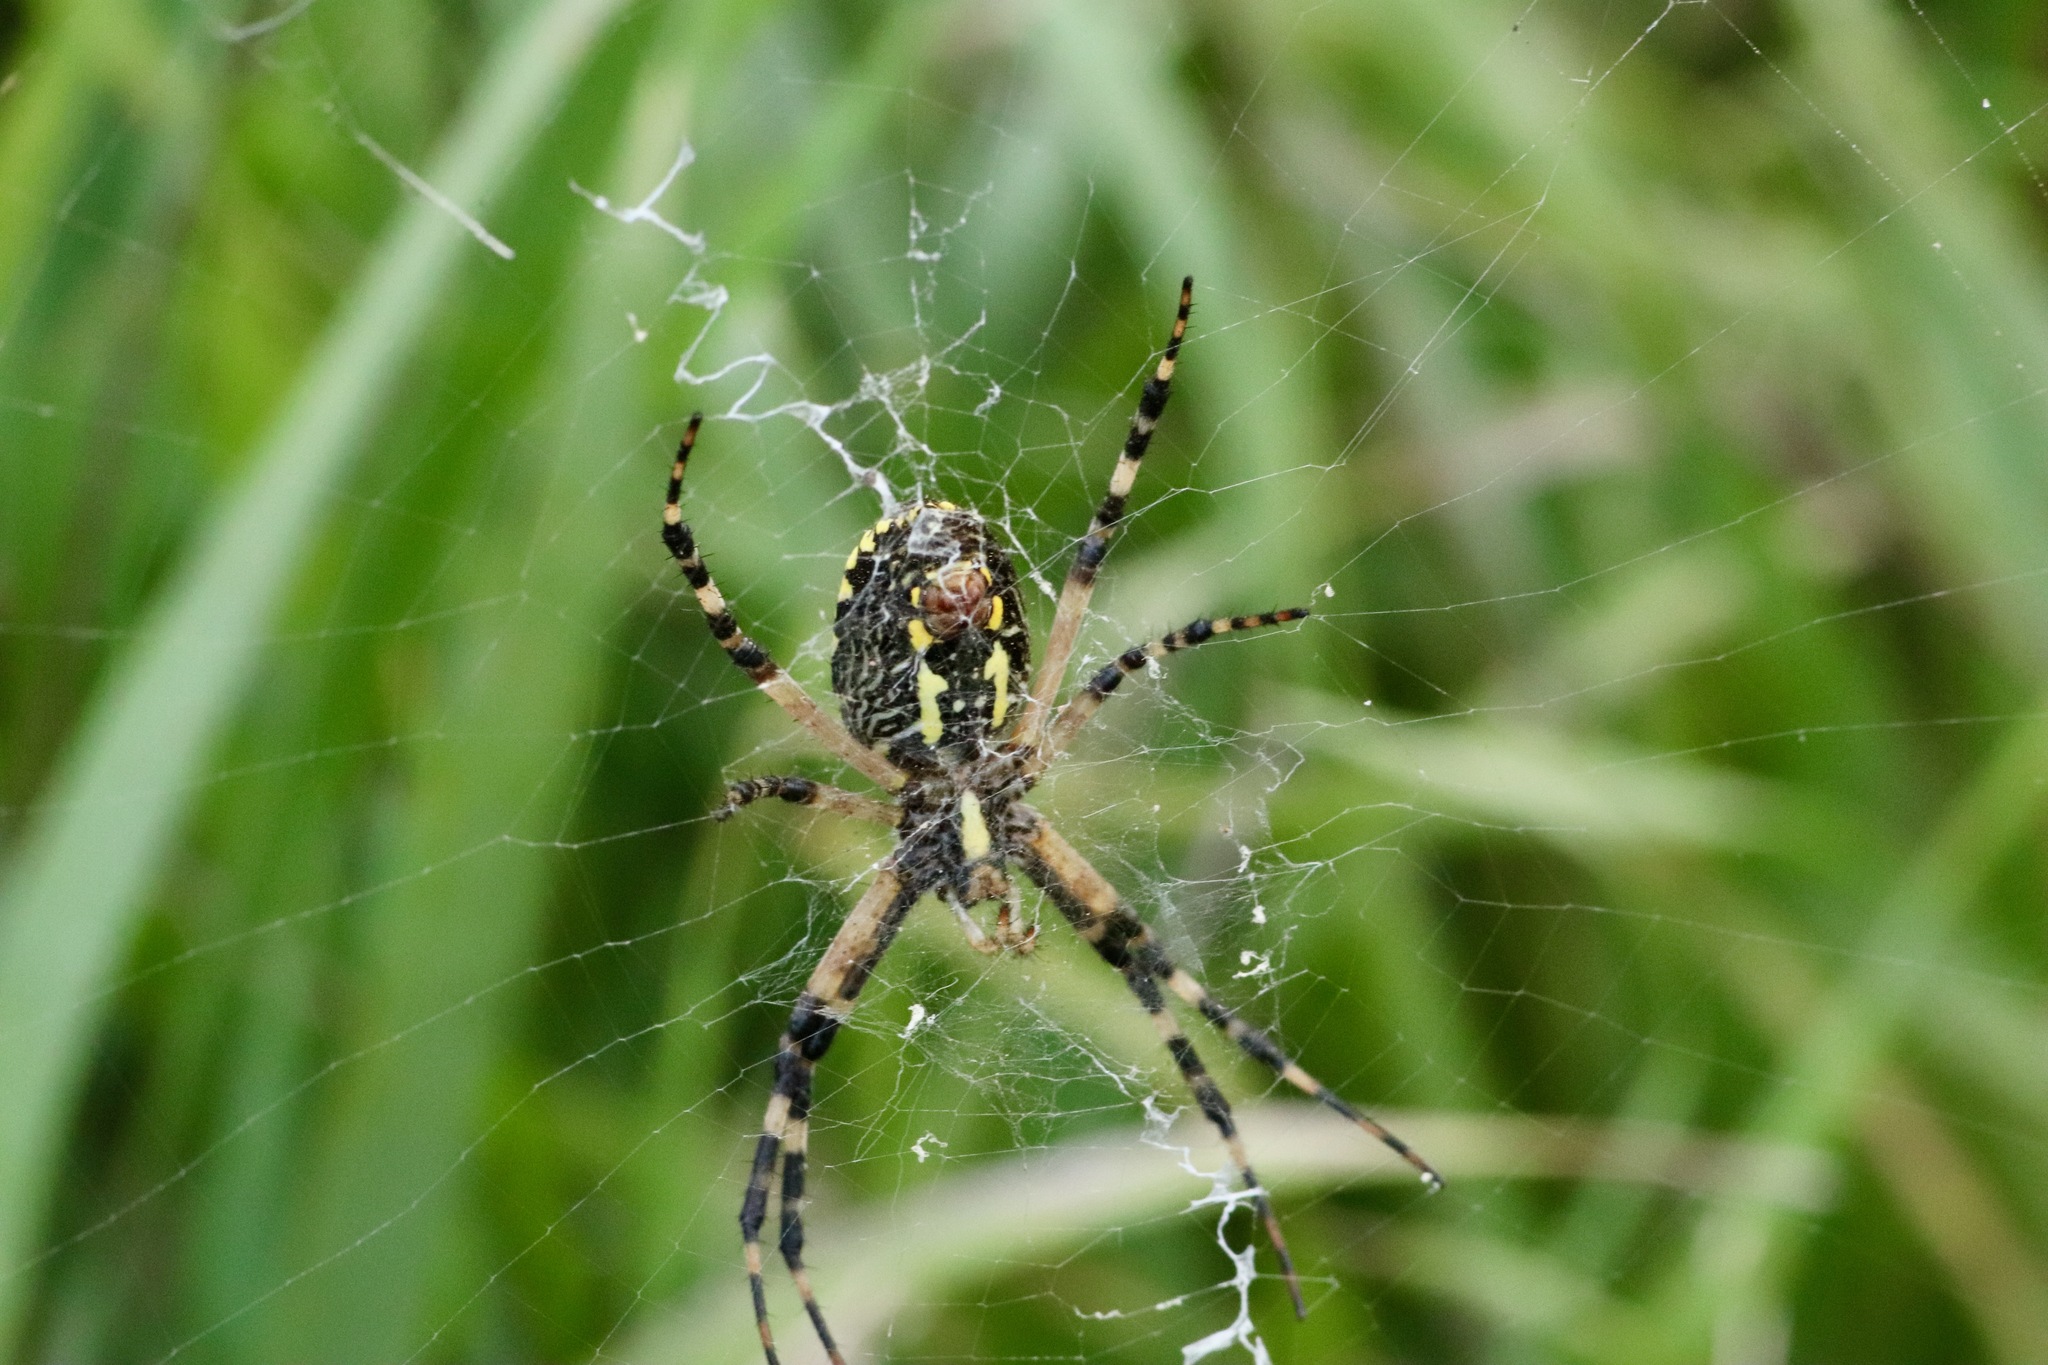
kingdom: Animalia
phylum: Arthropoda
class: Arachnida
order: Araneae
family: Araneidae
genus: Argiope
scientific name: Argiope aurantia
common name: Orb weavers
